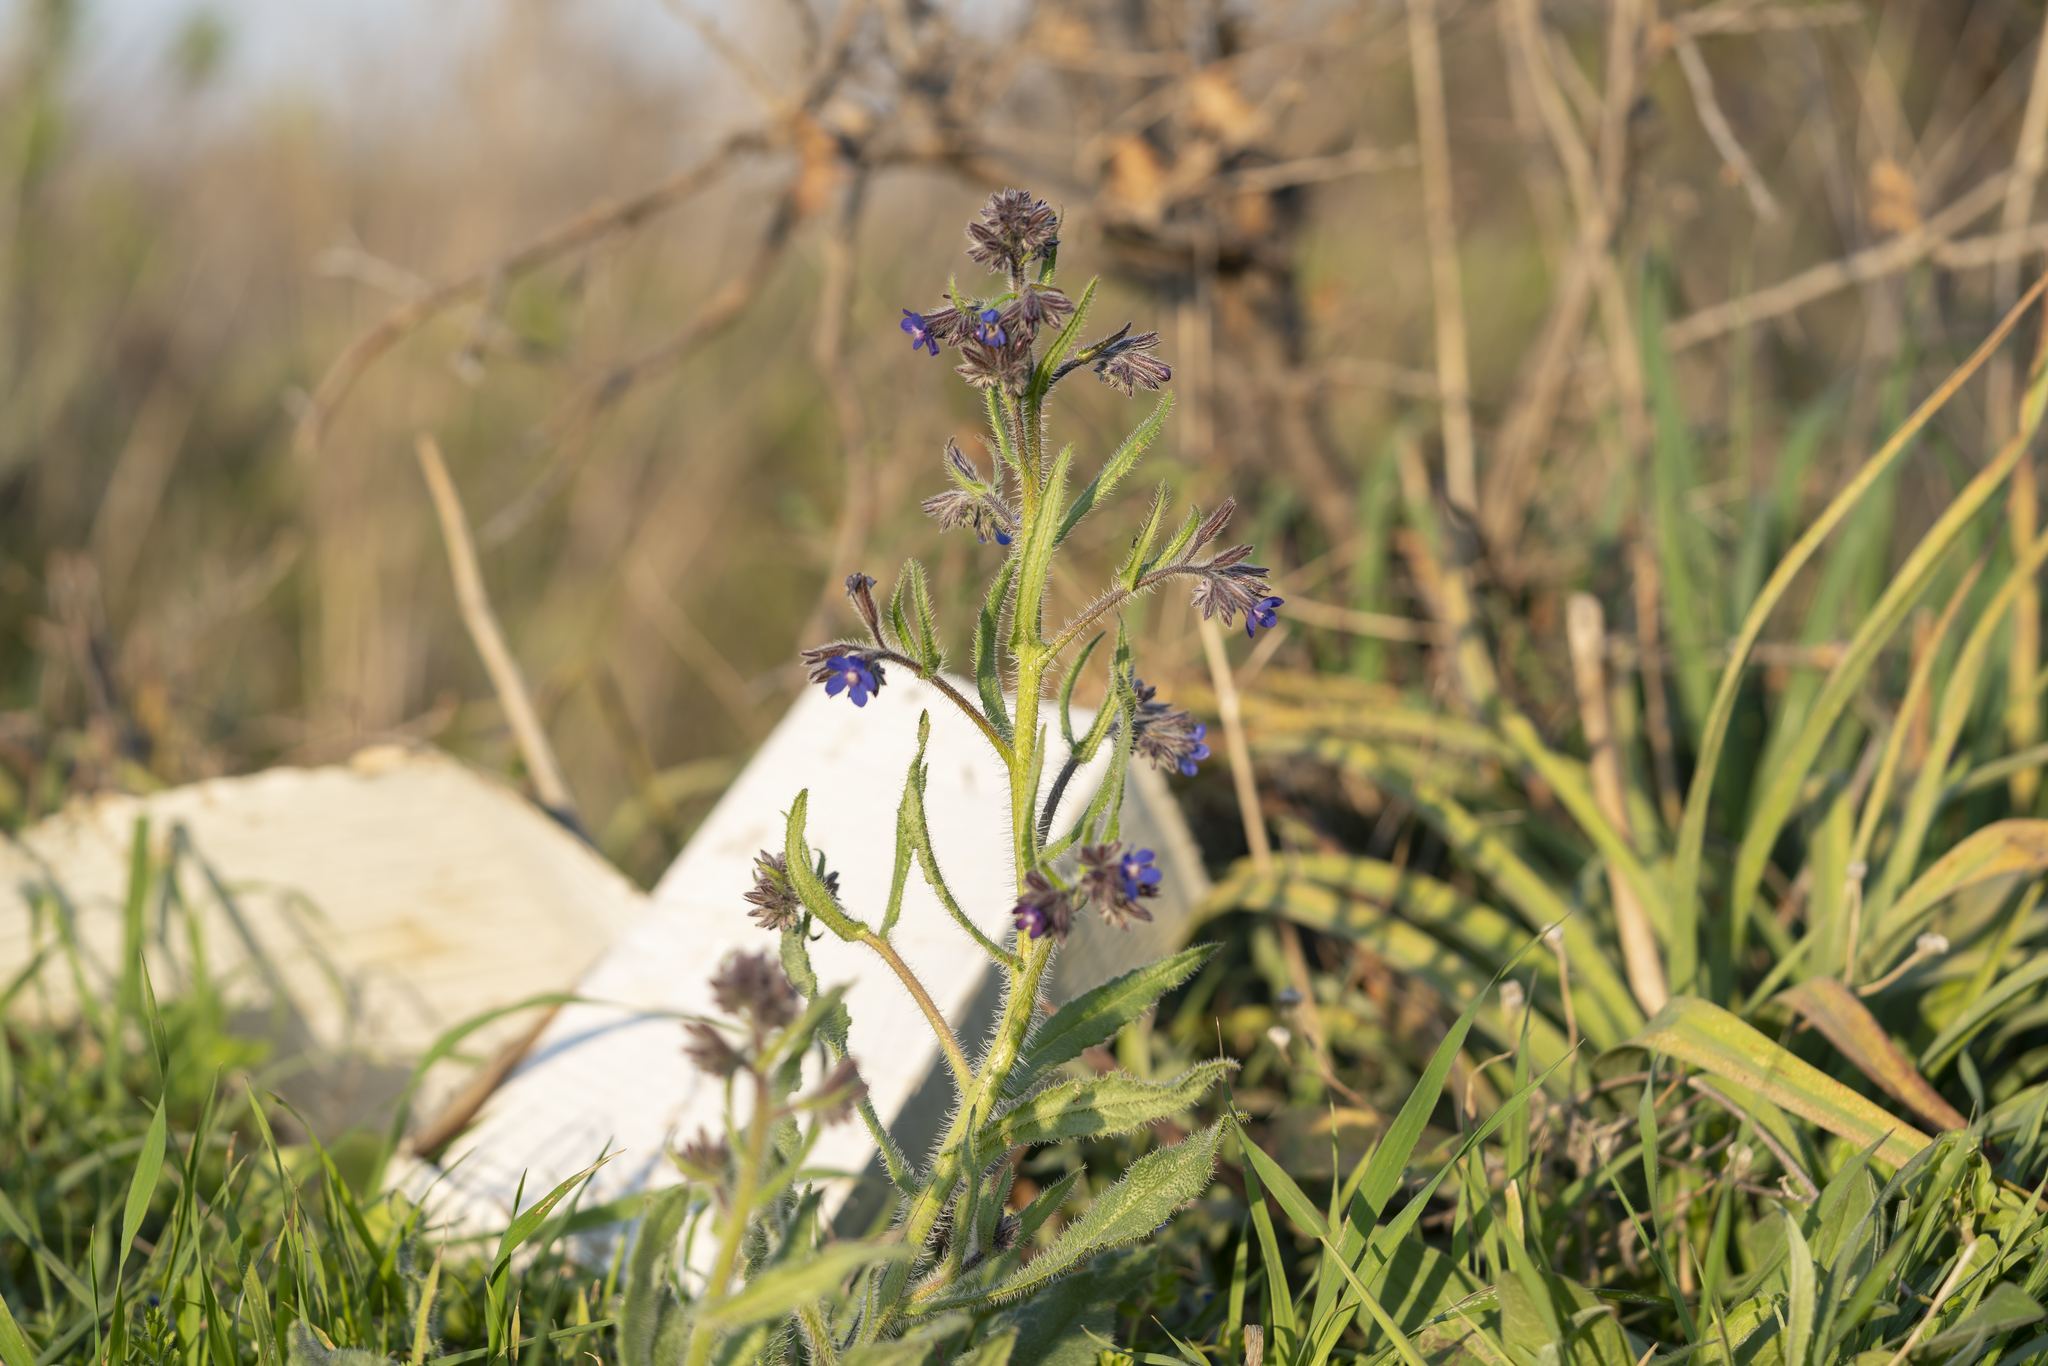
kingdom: Plantae
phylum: Tracheophyta
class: Magnoliopsida
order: Boraginales
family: Boraginaceae
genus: Anchusa
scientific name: Anchusa azurea
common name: Garden anchusa
